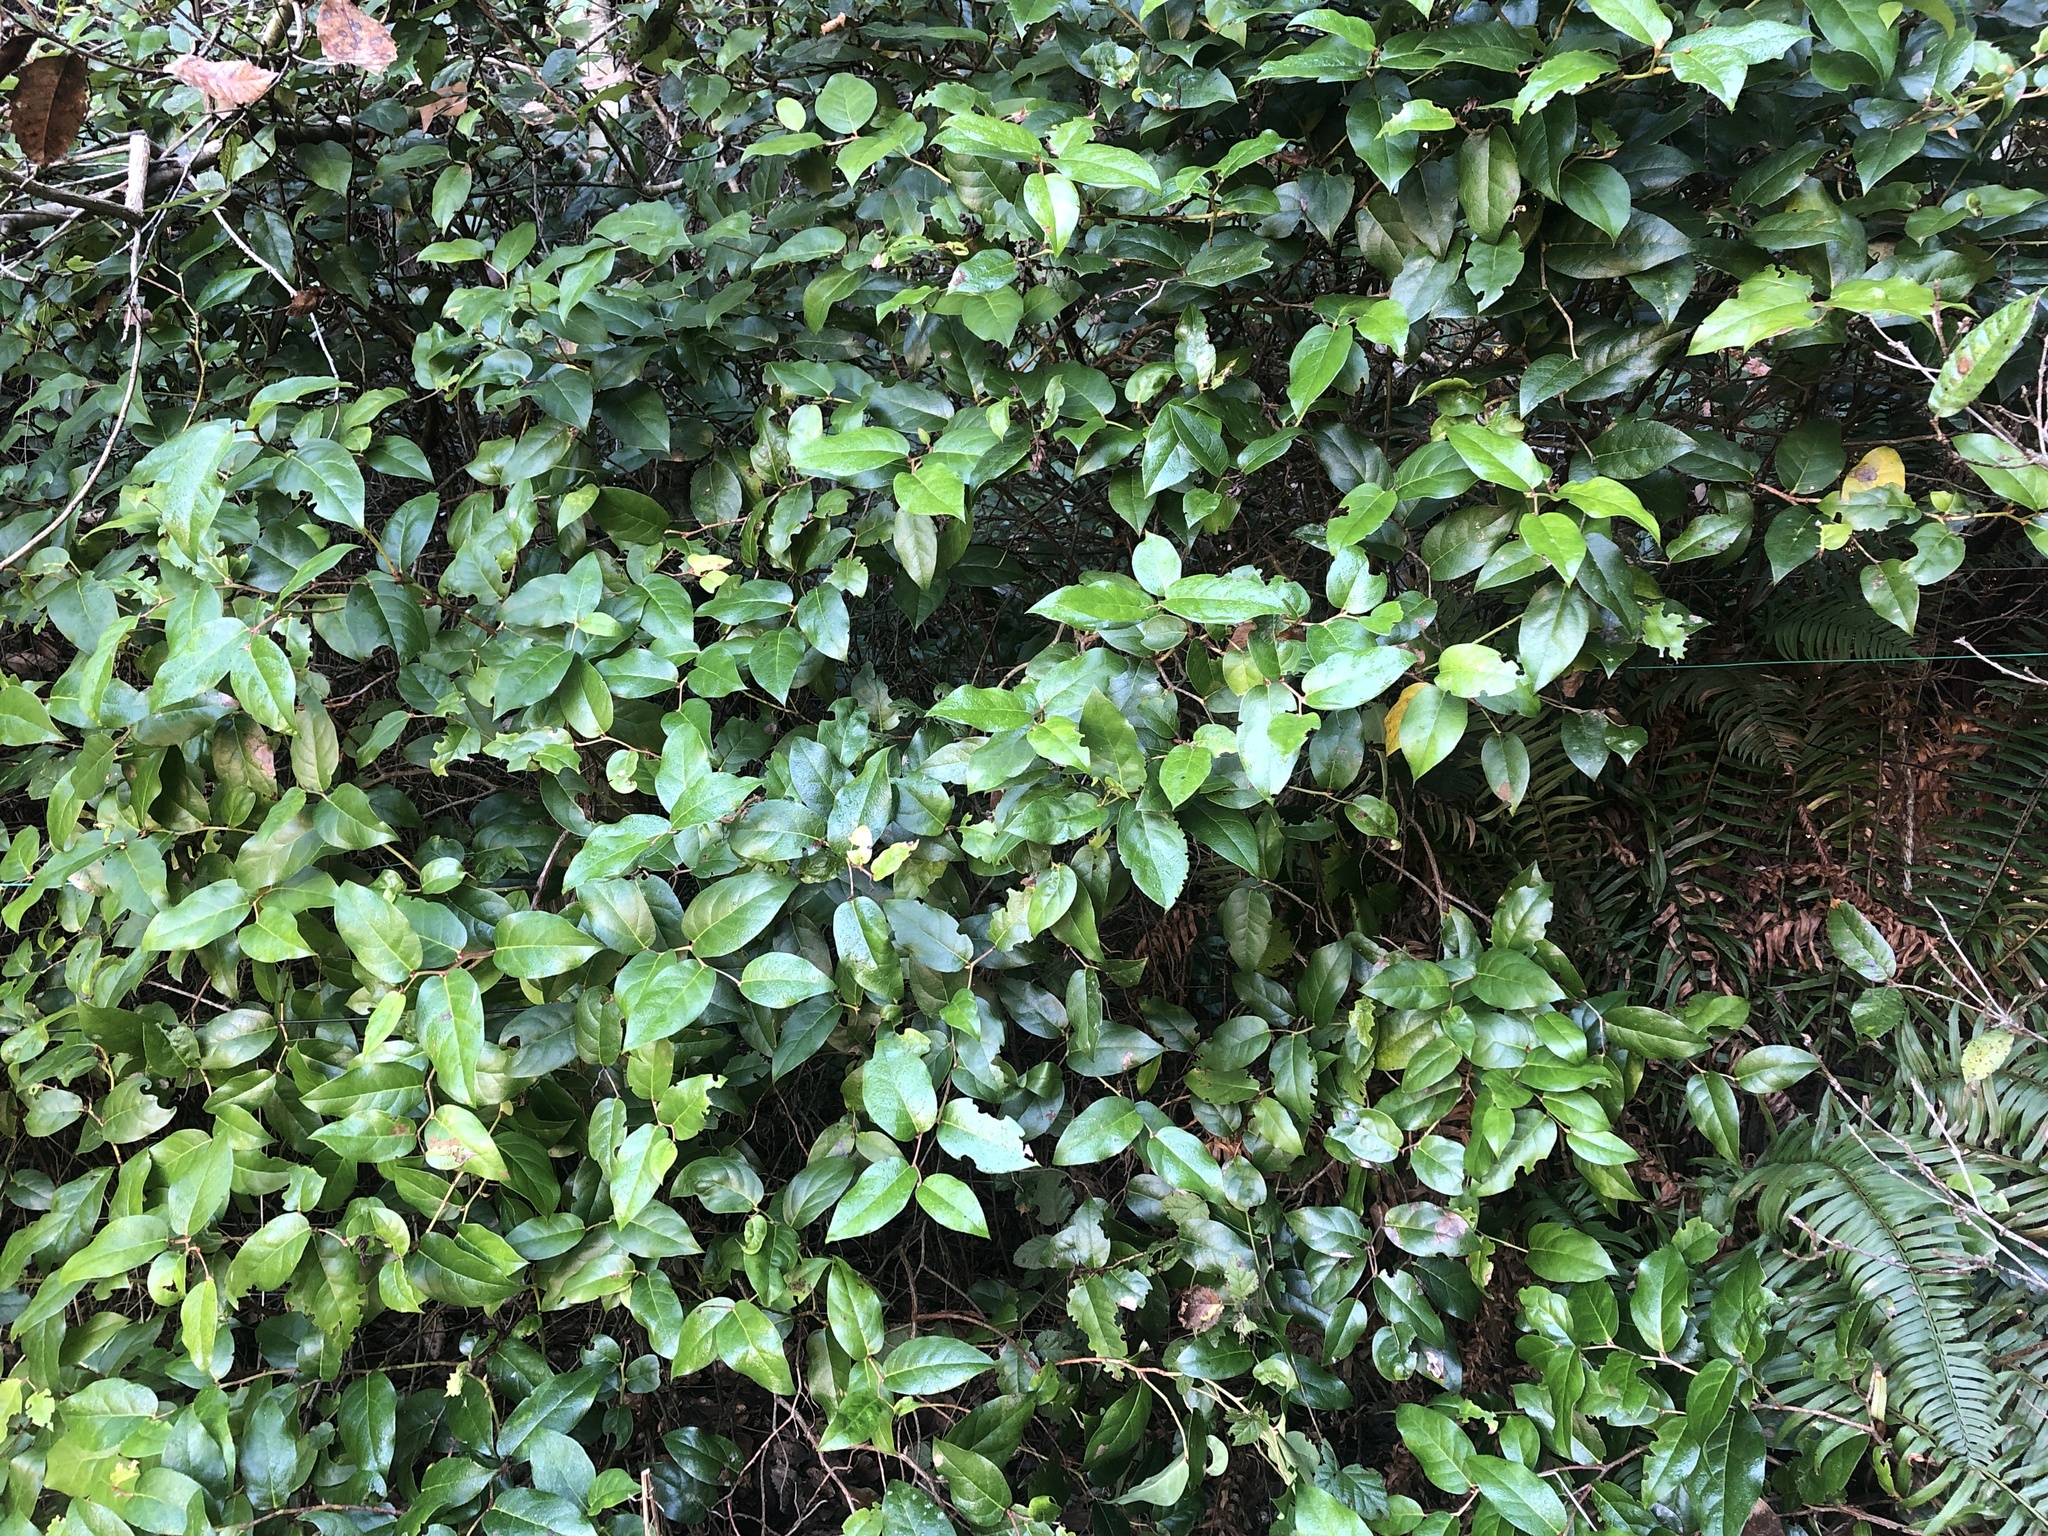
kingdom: Plantae
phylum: Tracheophyta
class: Magnoliopsida
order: Ericales
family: Ericaceae
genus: Gaultheria
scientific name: Gaultheria shallon
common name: Shallon
